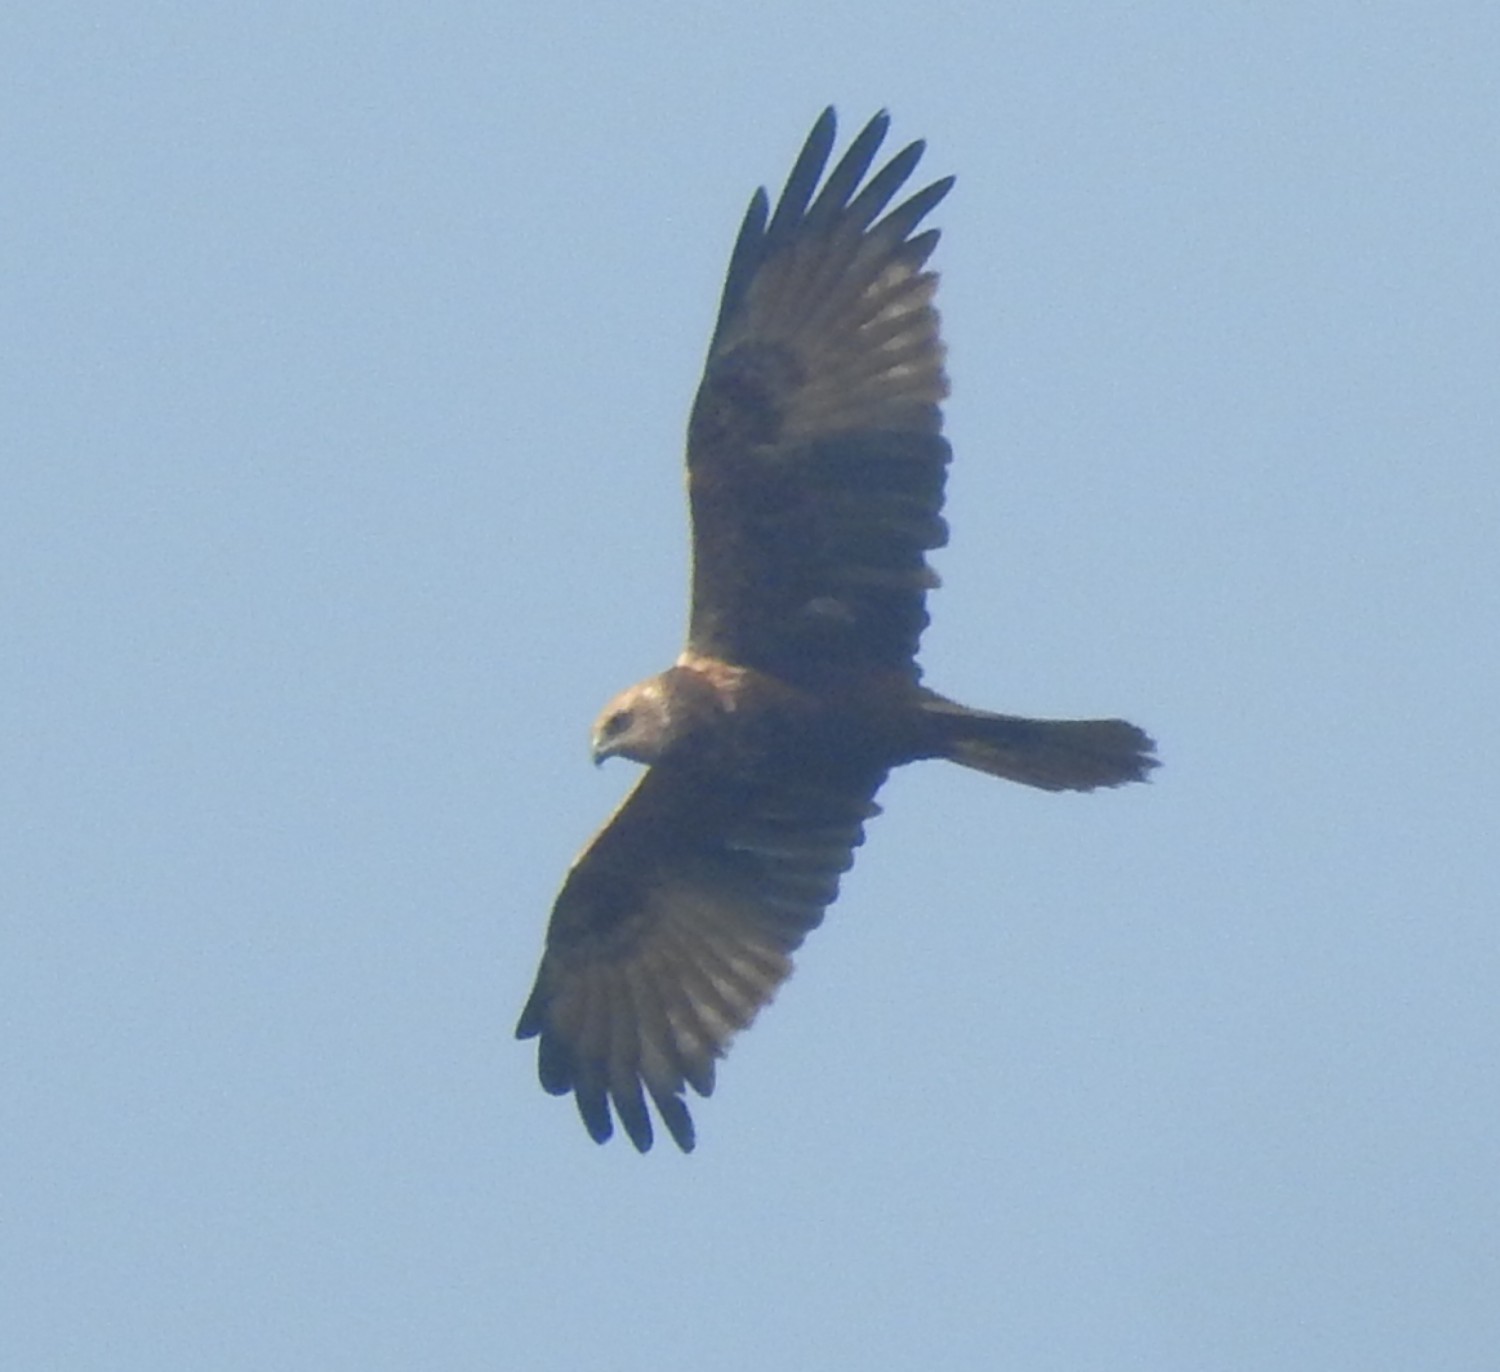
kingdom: Animalia
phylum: Chordata
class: Aves
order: Accipitriformes
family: Accipitridae
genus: Circus
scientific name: Circus aeruginosus
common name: Western marsh harrier
